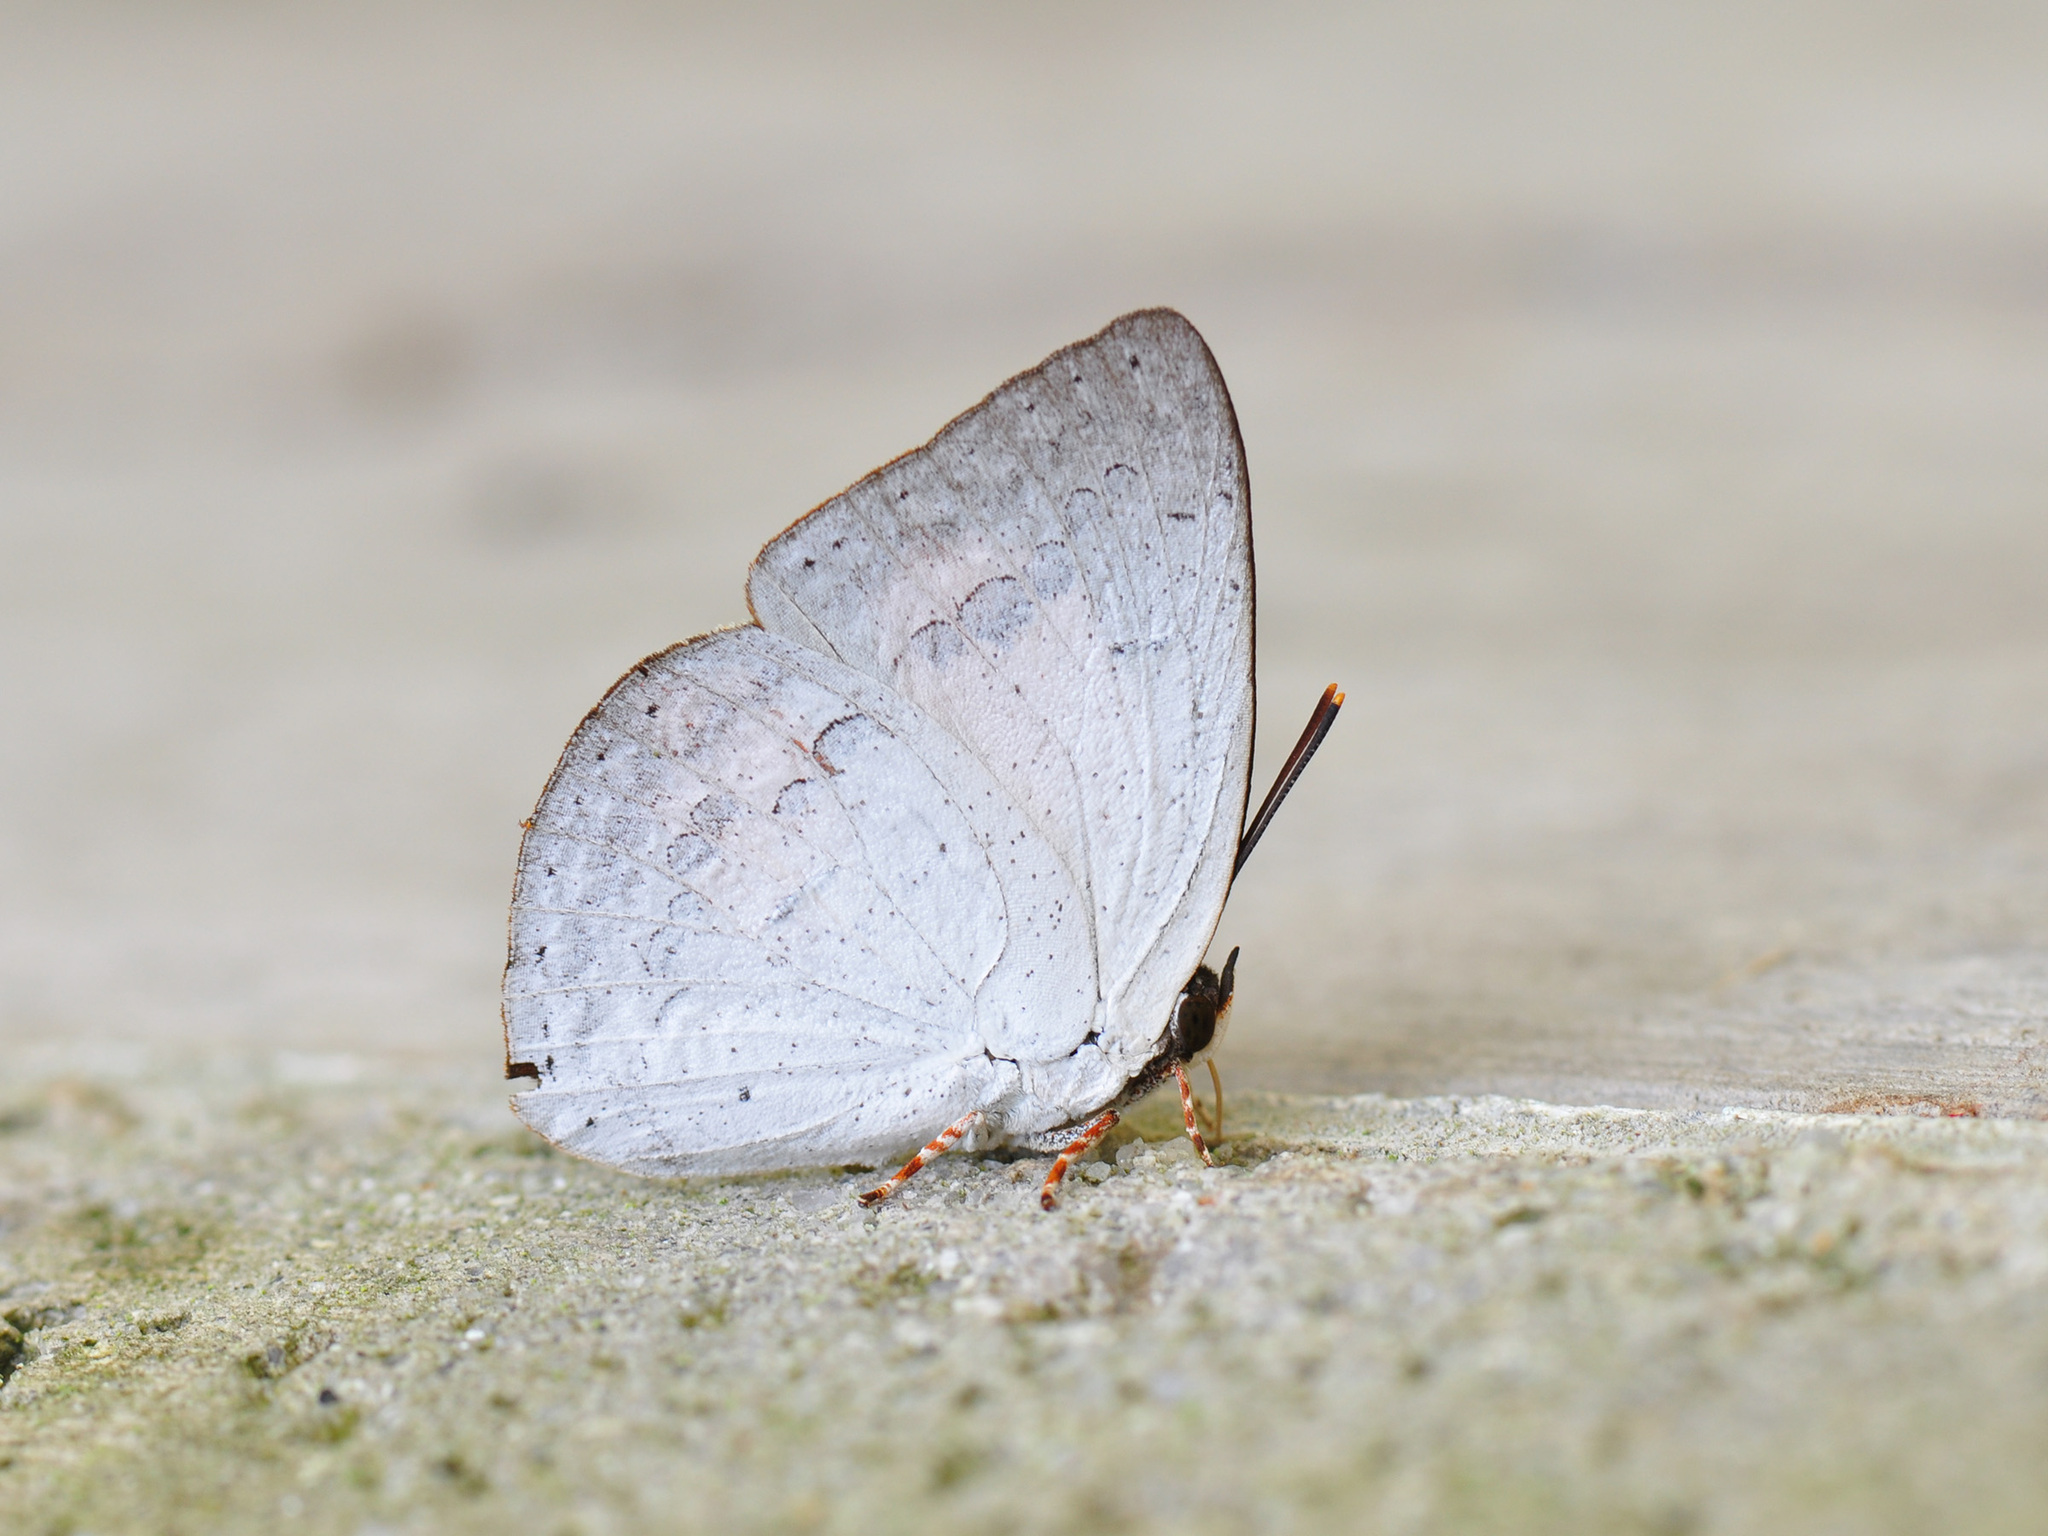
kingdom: Animalia
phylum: Arthropoda
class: Insecta
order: Lepidoptera
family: Lycaenidae
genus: Curetis
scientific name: Curetis sperthis
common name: Rounded sunbeam
